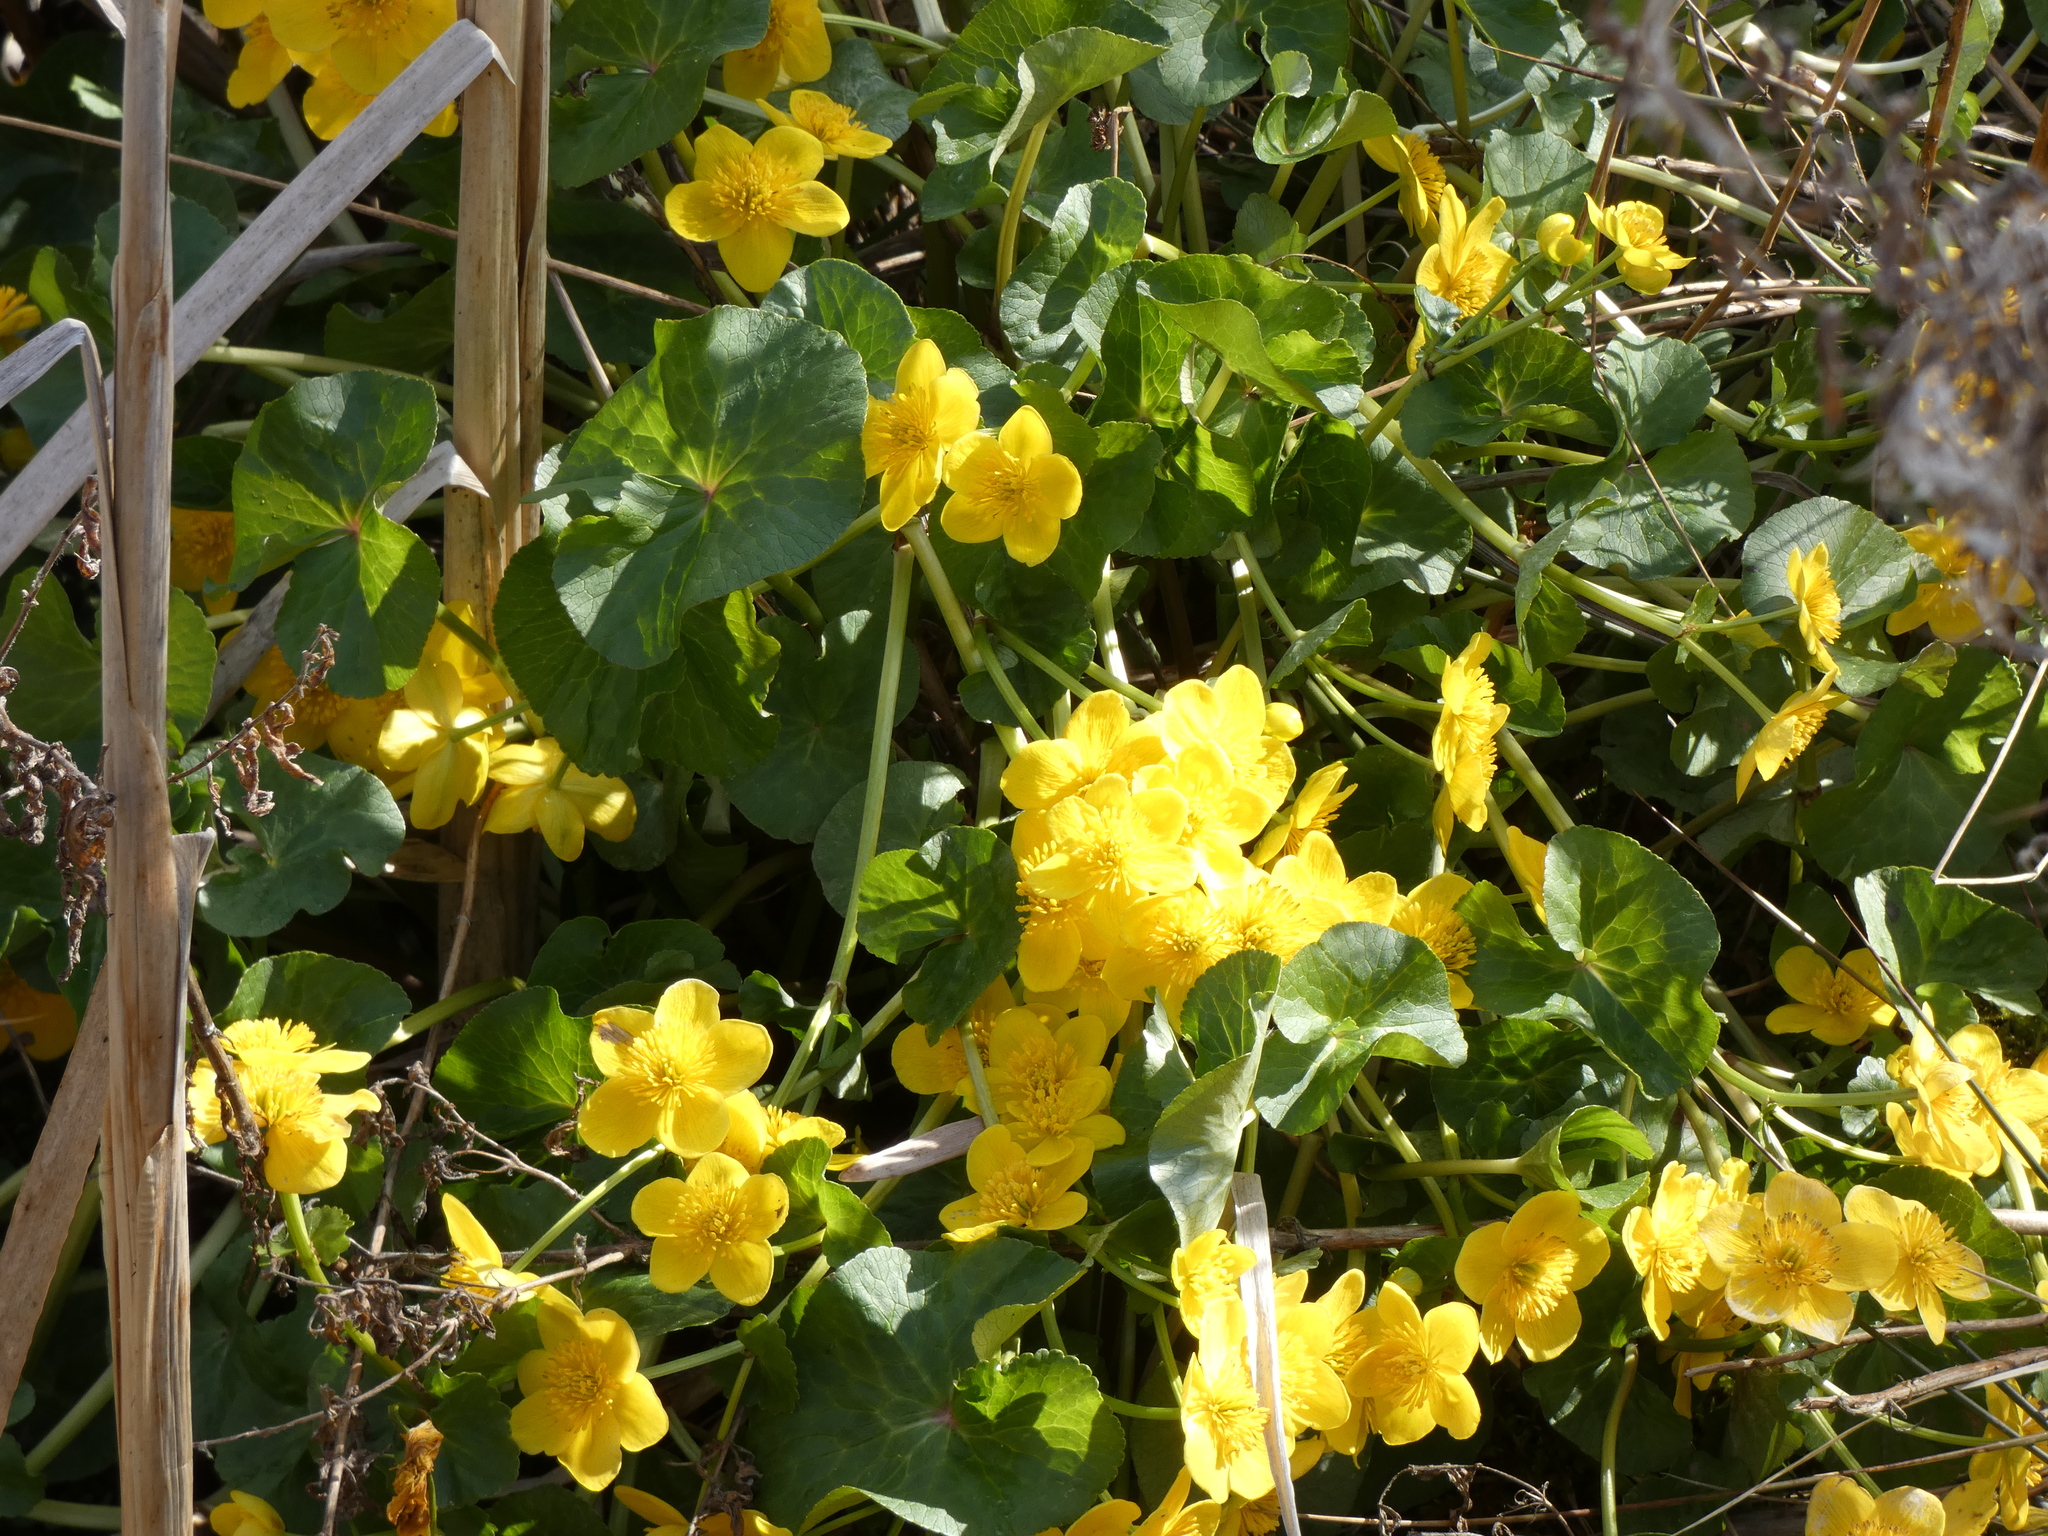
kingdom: Plantae
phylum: Tracheophyta
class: Magnoliopsida
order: Ranunculales
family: Ranunculaceae
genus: Caltha
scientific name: Caltha palustris
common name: Marsh marigold
